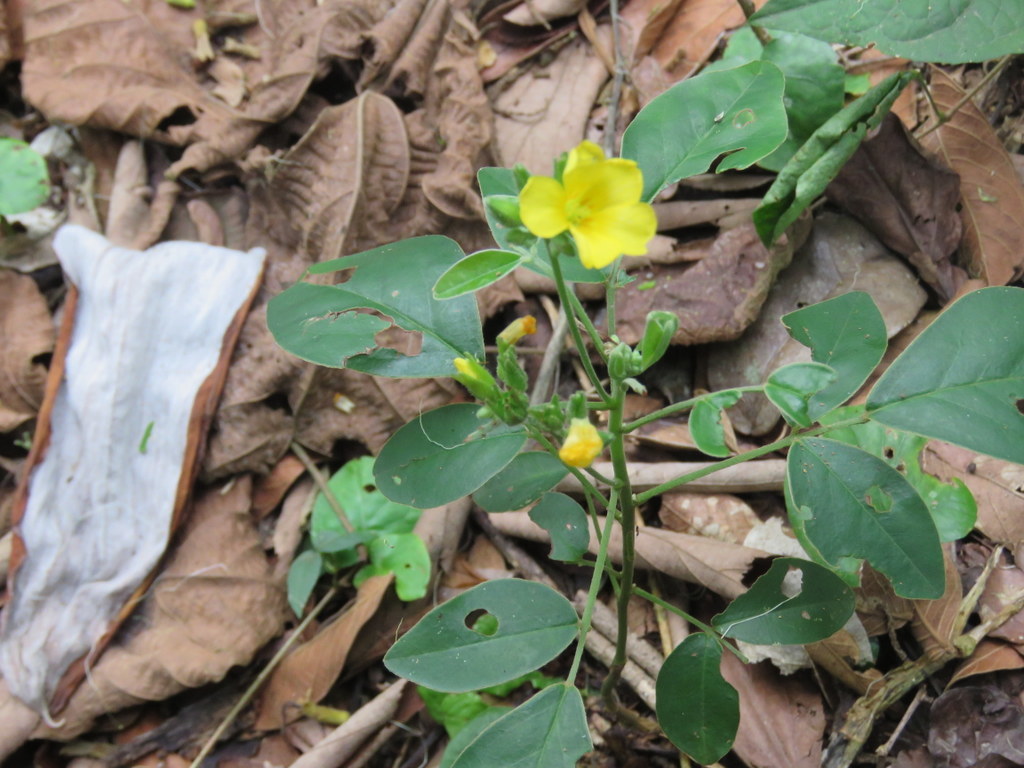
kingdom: Plantae
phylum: Tracheophyta
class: Magnoliopsida
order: Oxalidales
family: Oxalidaceae
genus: Oxalis
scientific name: Oxalis rhombeo-ovata
